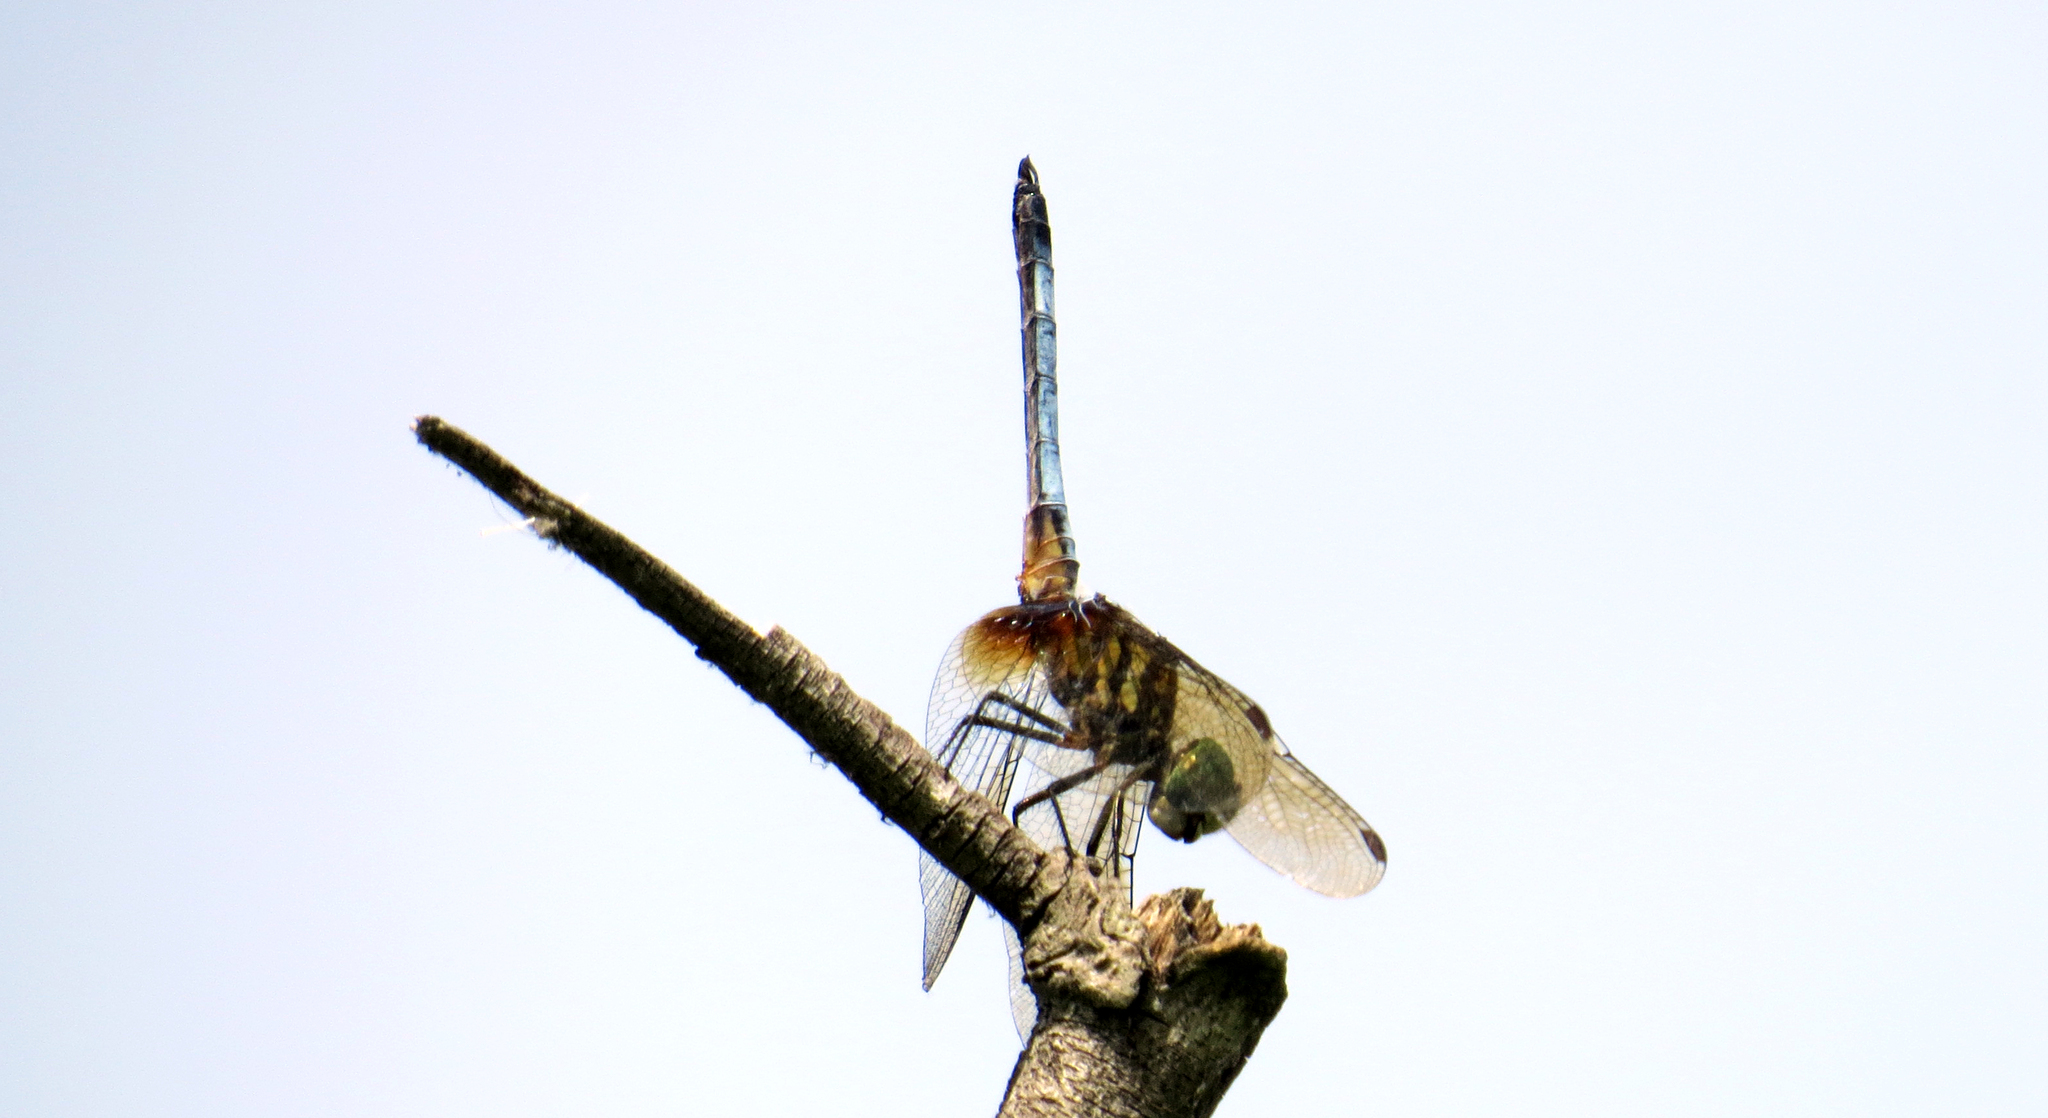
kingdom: Animalia
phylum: Arthropoda
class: Insecta
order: Odonata
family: Libellulidae
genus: Pachydiplax
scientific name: Pachydiplax longipennis
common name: Blue dasher
